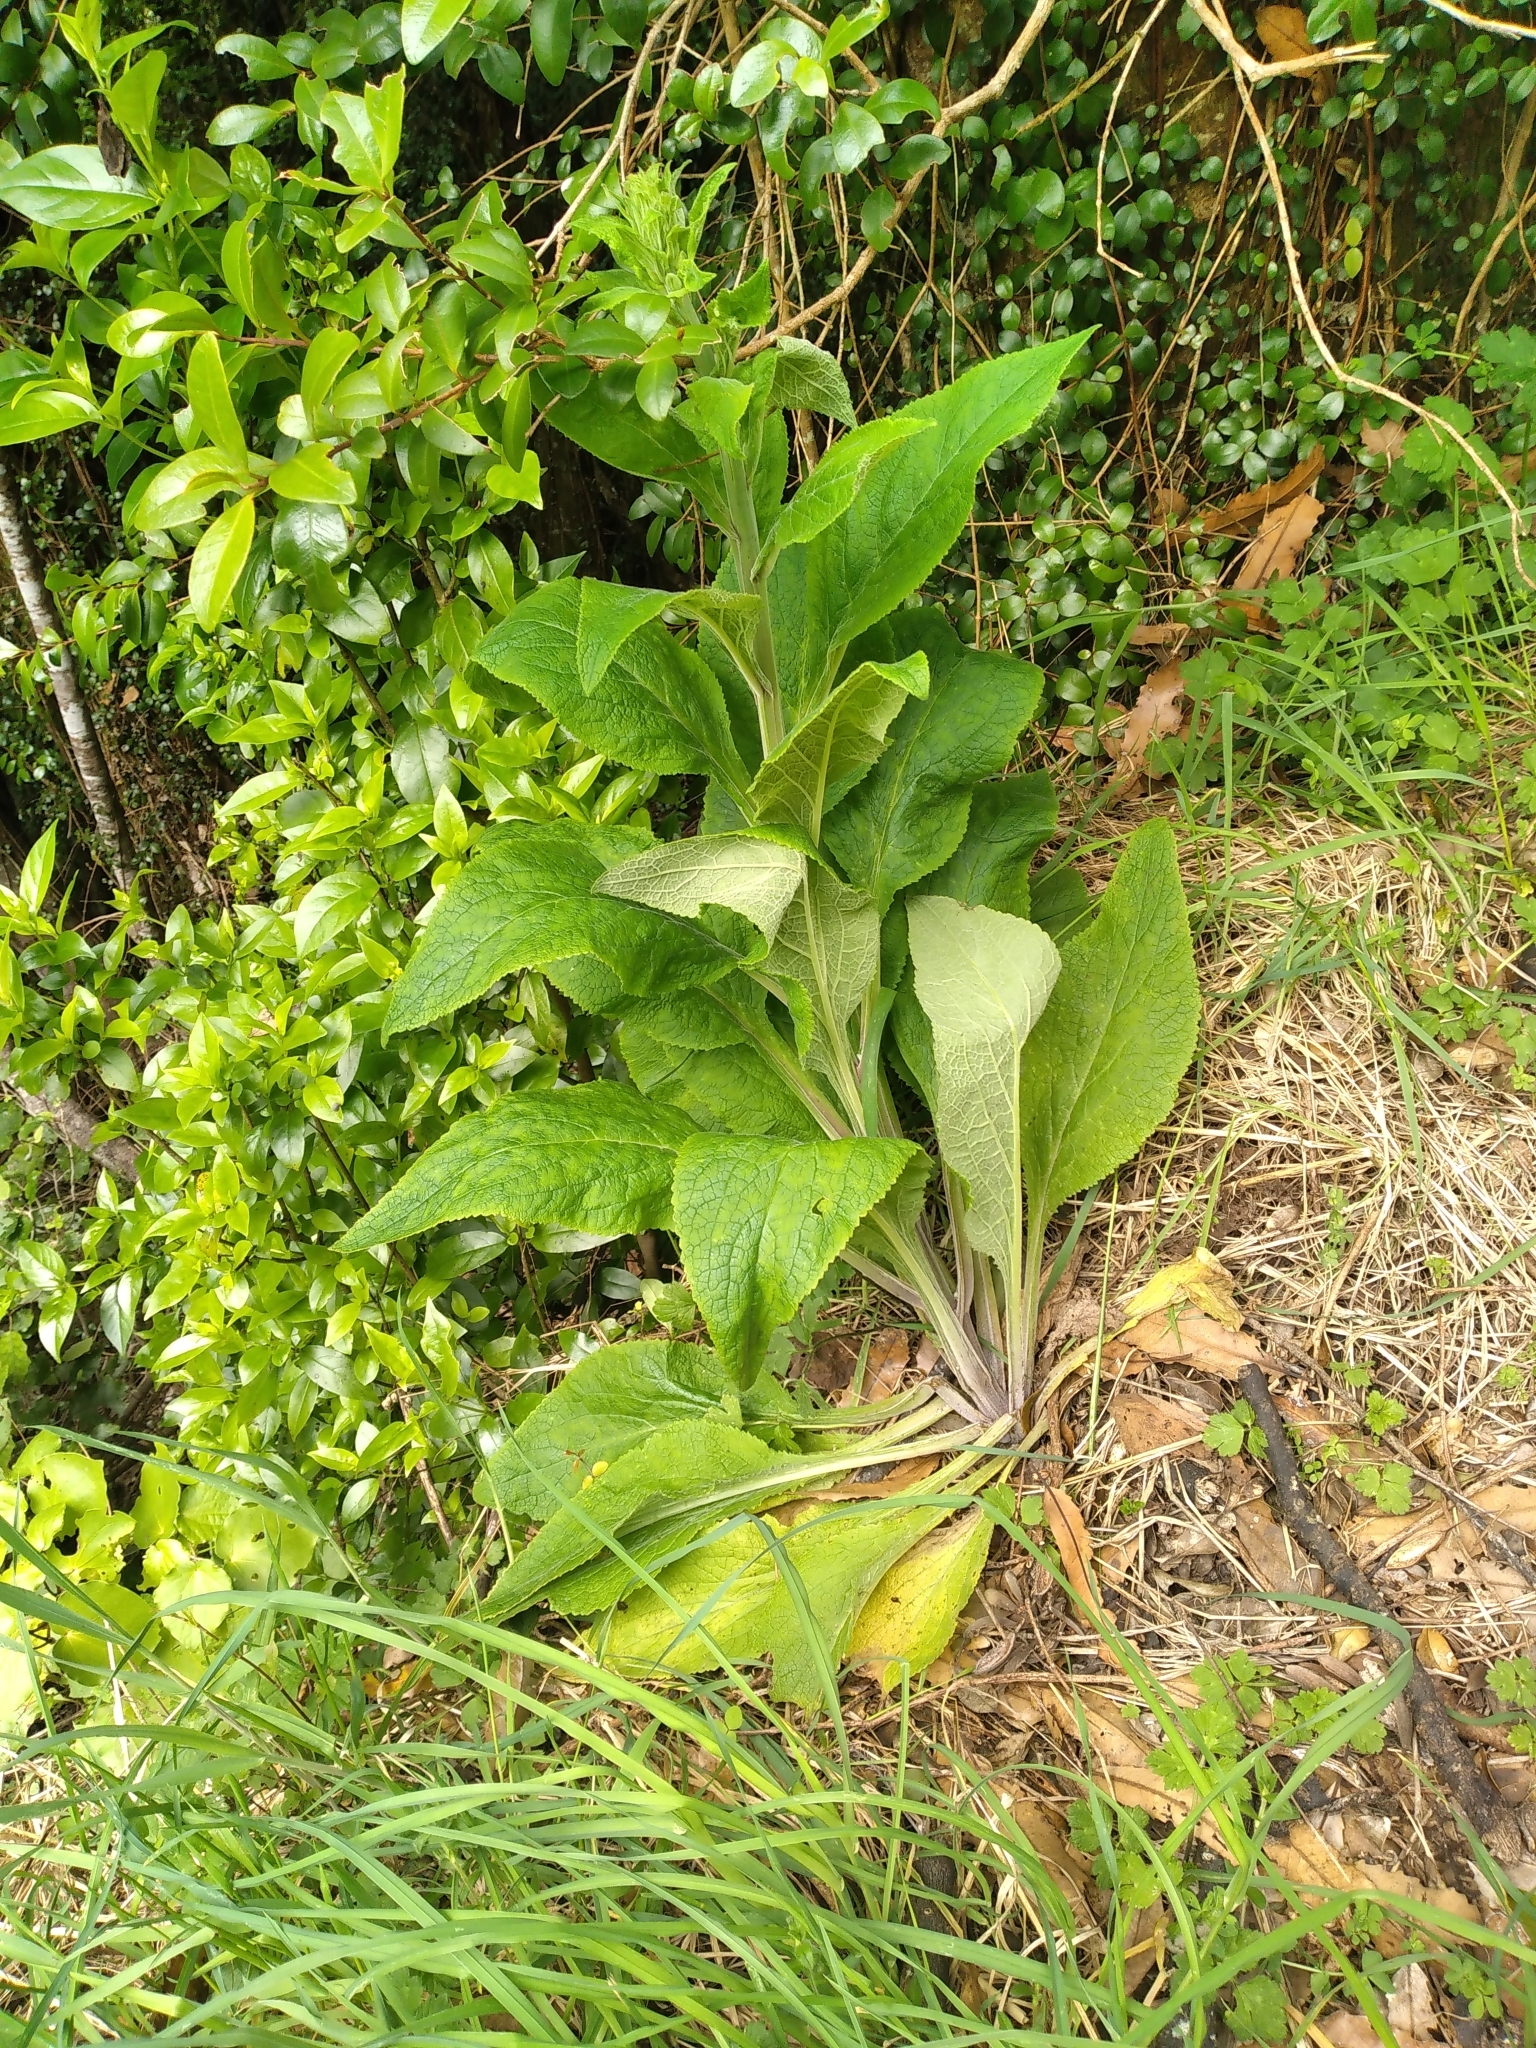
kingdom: Plantae
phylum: Tracheophyta
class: Magnoliopsida
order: Lamiales
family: Plantaginaceae
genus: Digitalis
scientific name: Digitalis purpurea
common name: Foxglove
